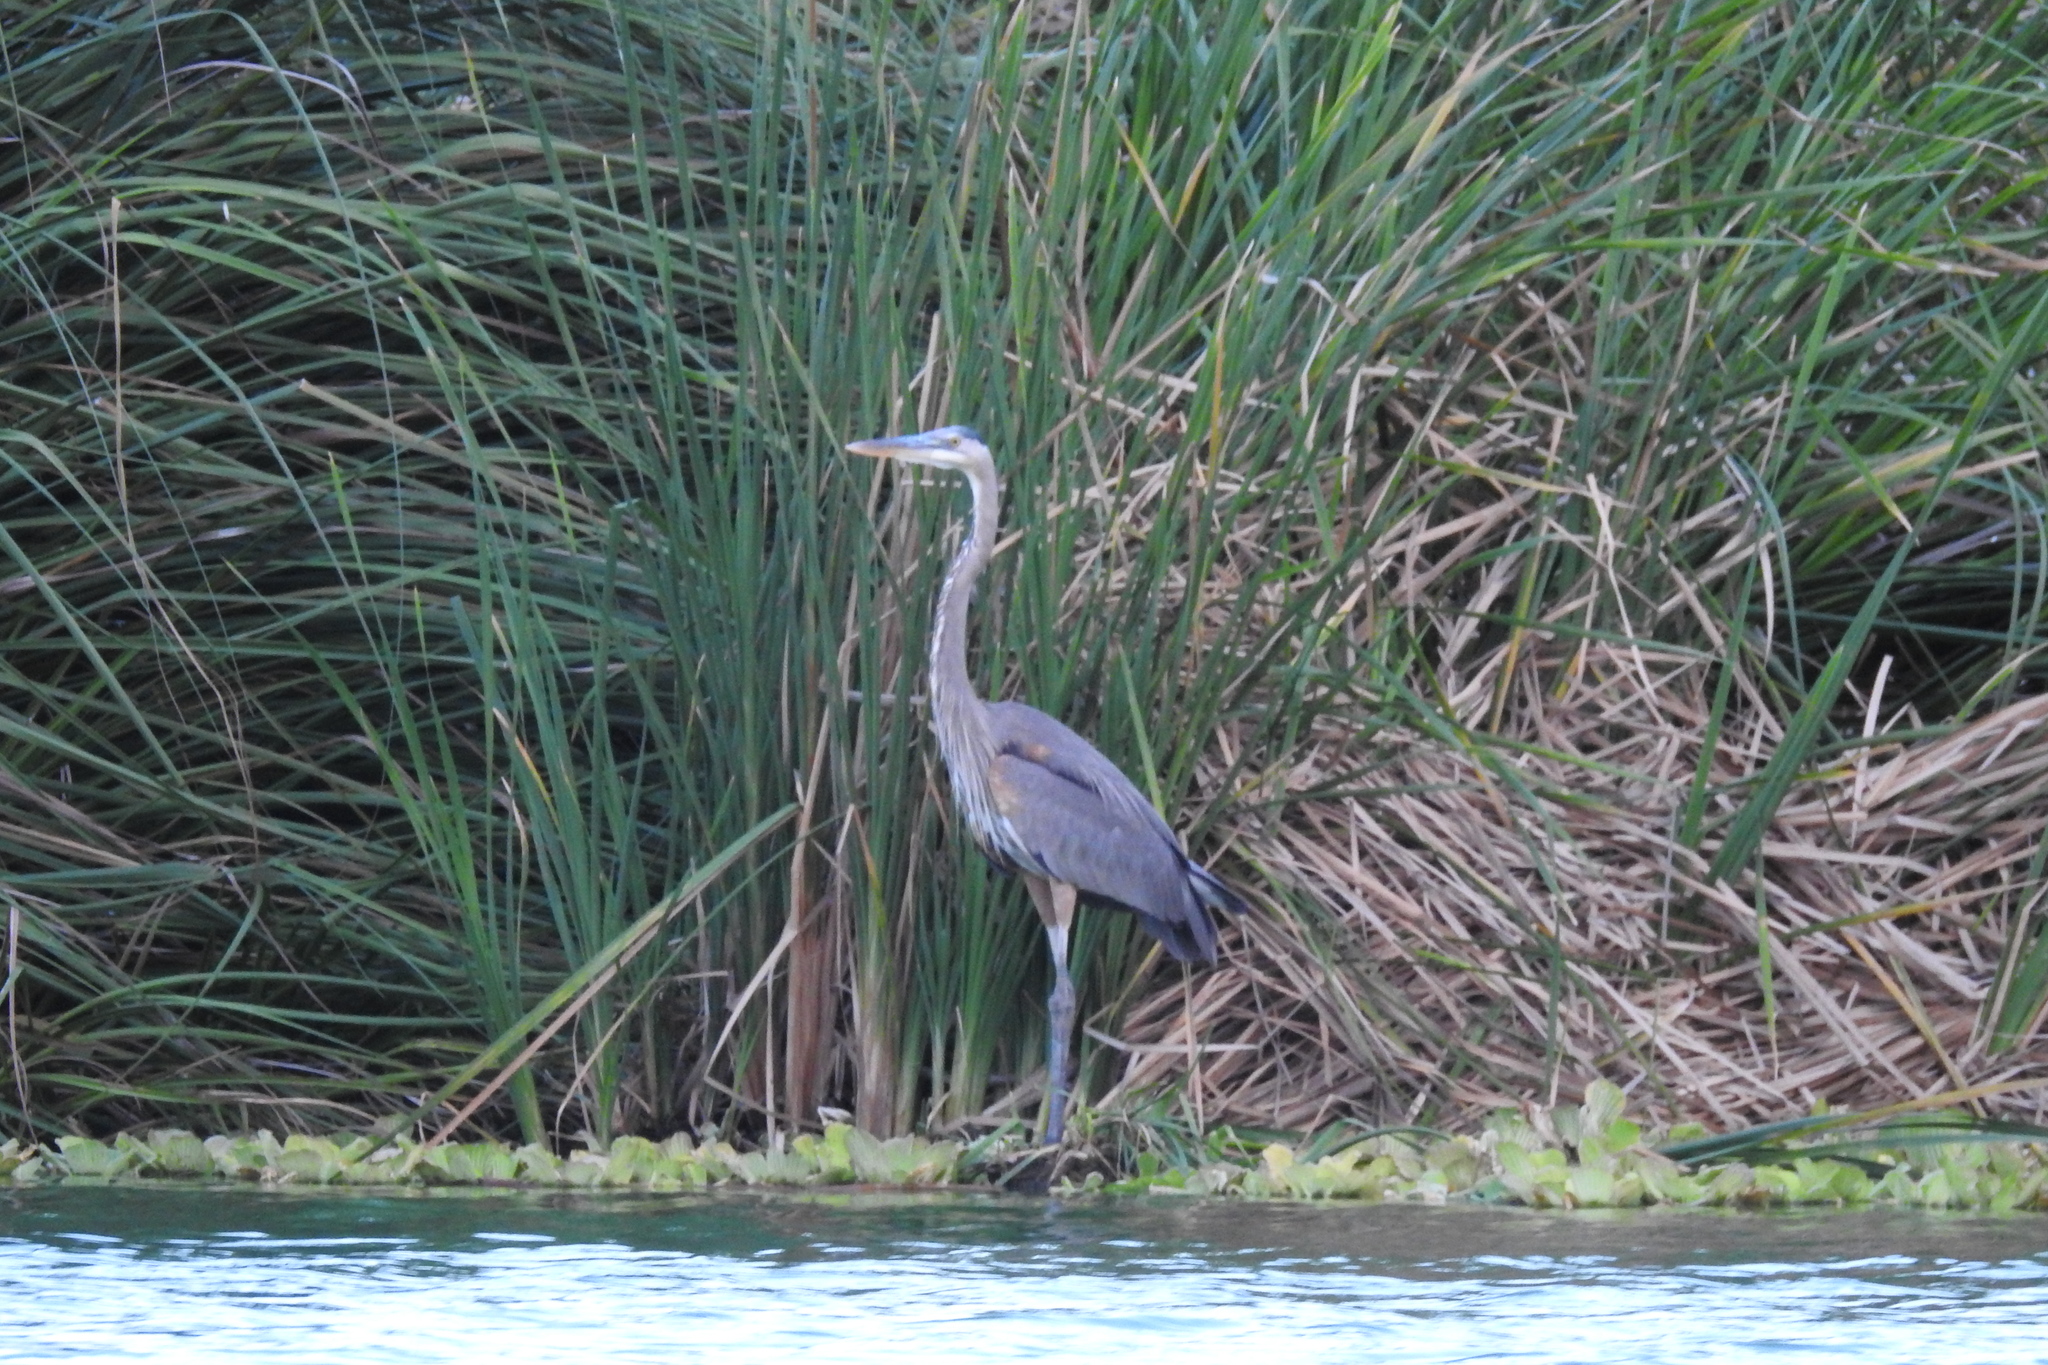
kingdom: Animalia
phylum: Chordata
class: Aves
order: Pelecaniformes
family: Ardeidae
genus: Ardea
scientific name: Ardea herodias
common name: Great blue heron
